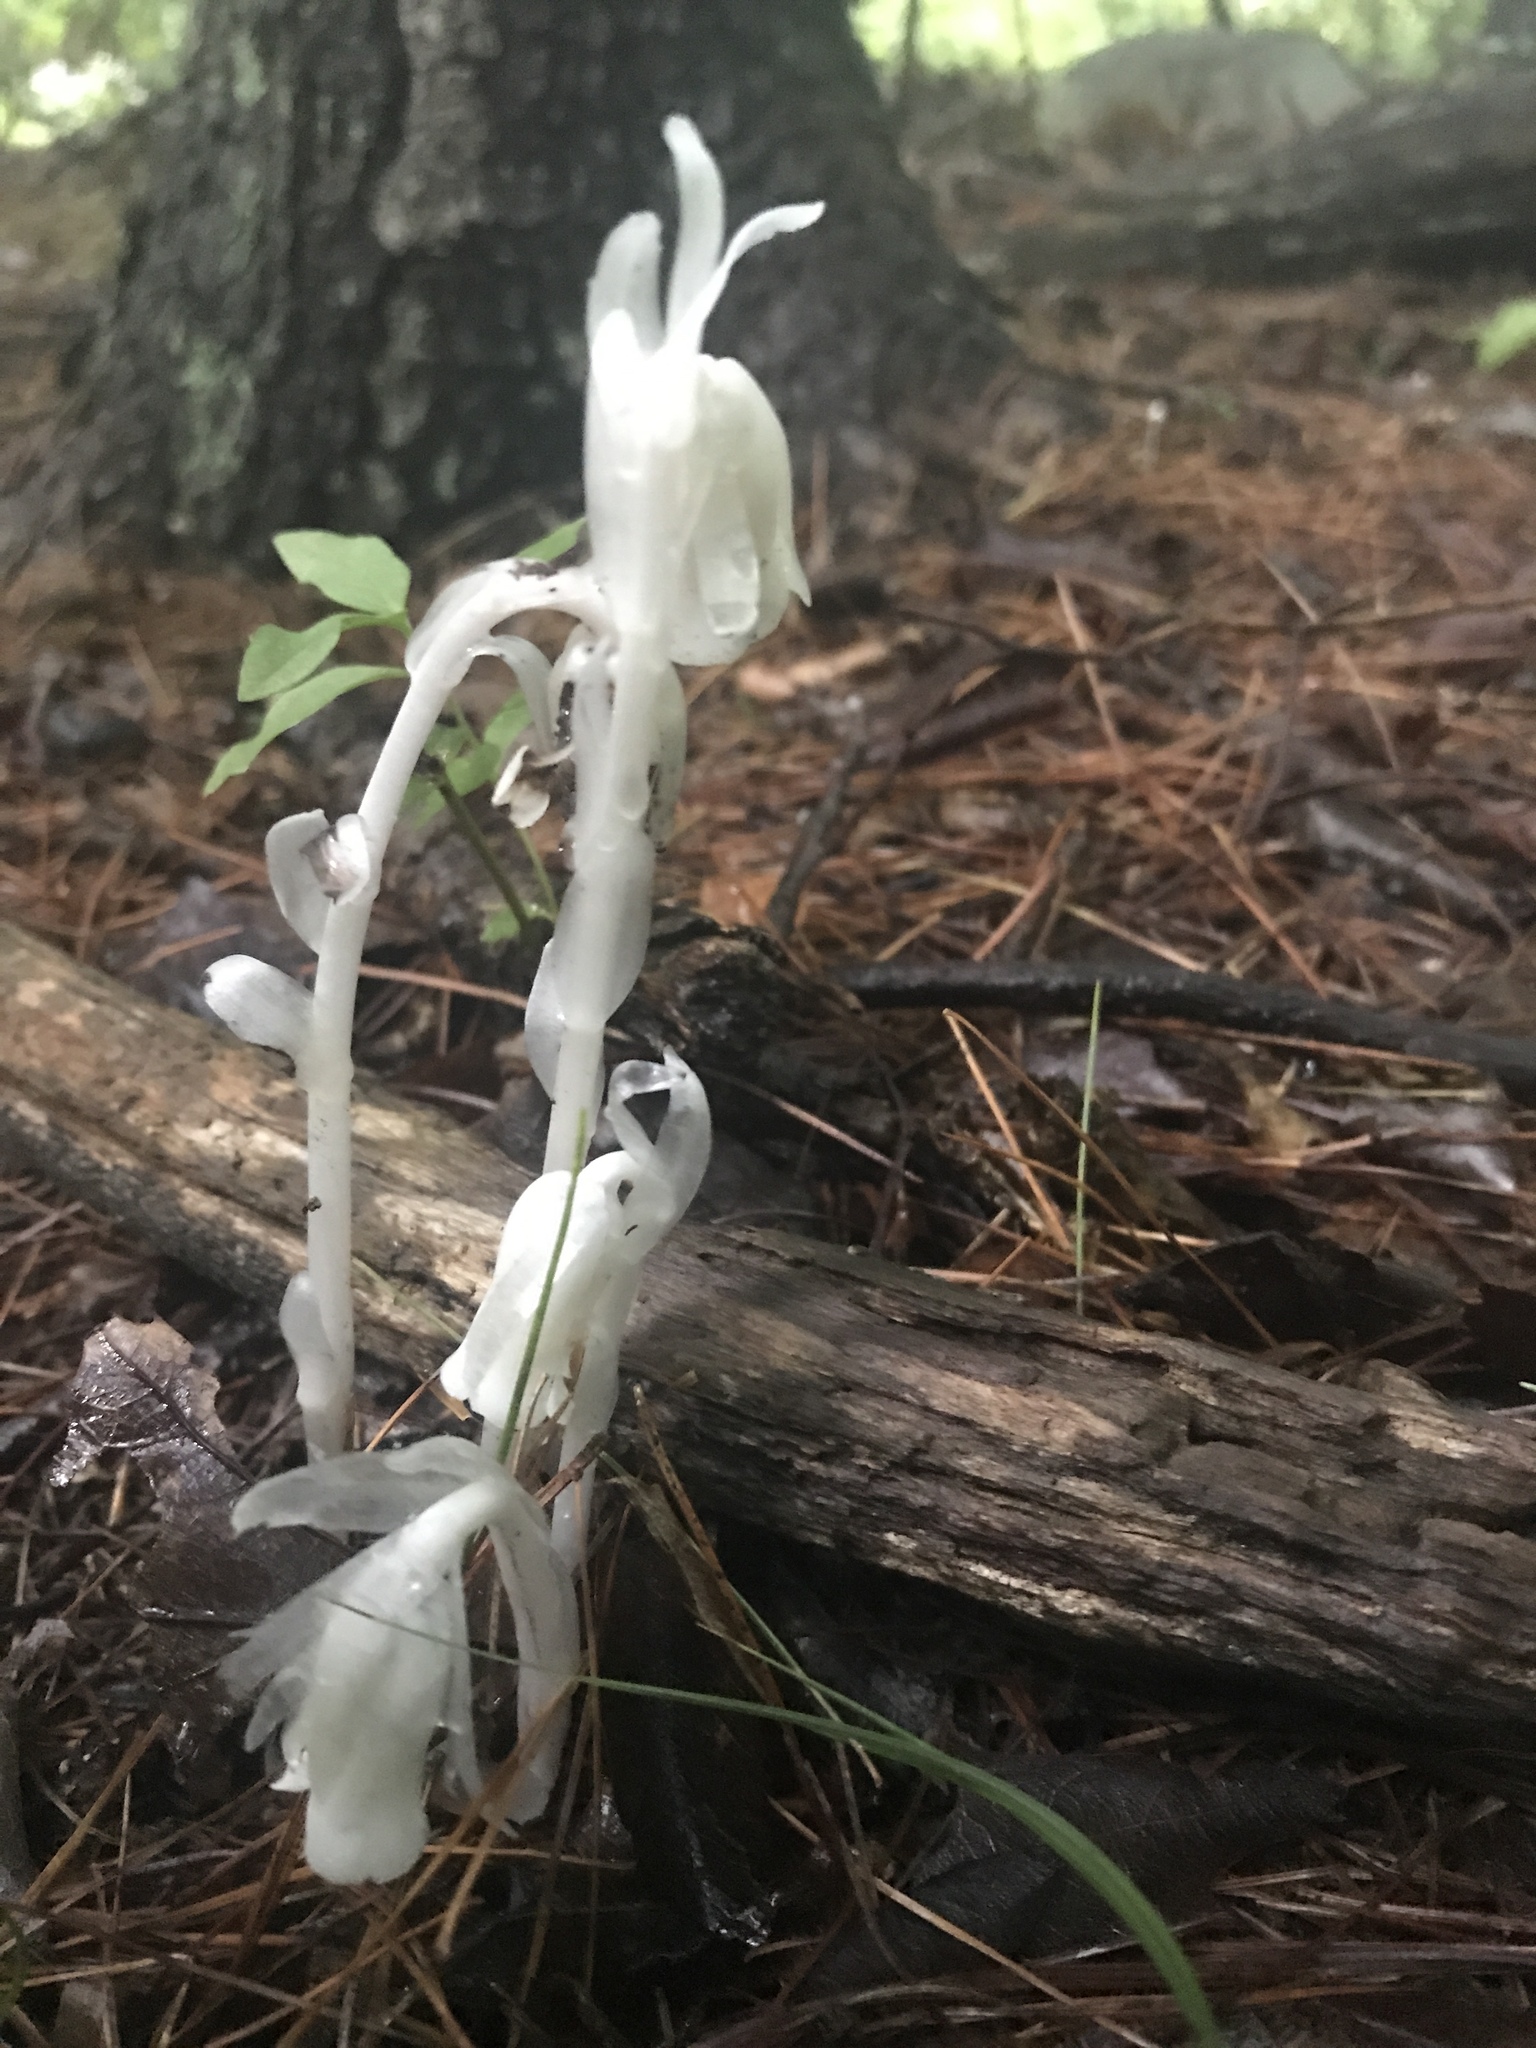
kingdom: Plantae
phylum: Tracheophyta
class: Magnoliopsida
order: Ericales
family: Ericaceae
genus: Monotropa
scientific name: Monotropa uniflora
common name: Convulsion root
